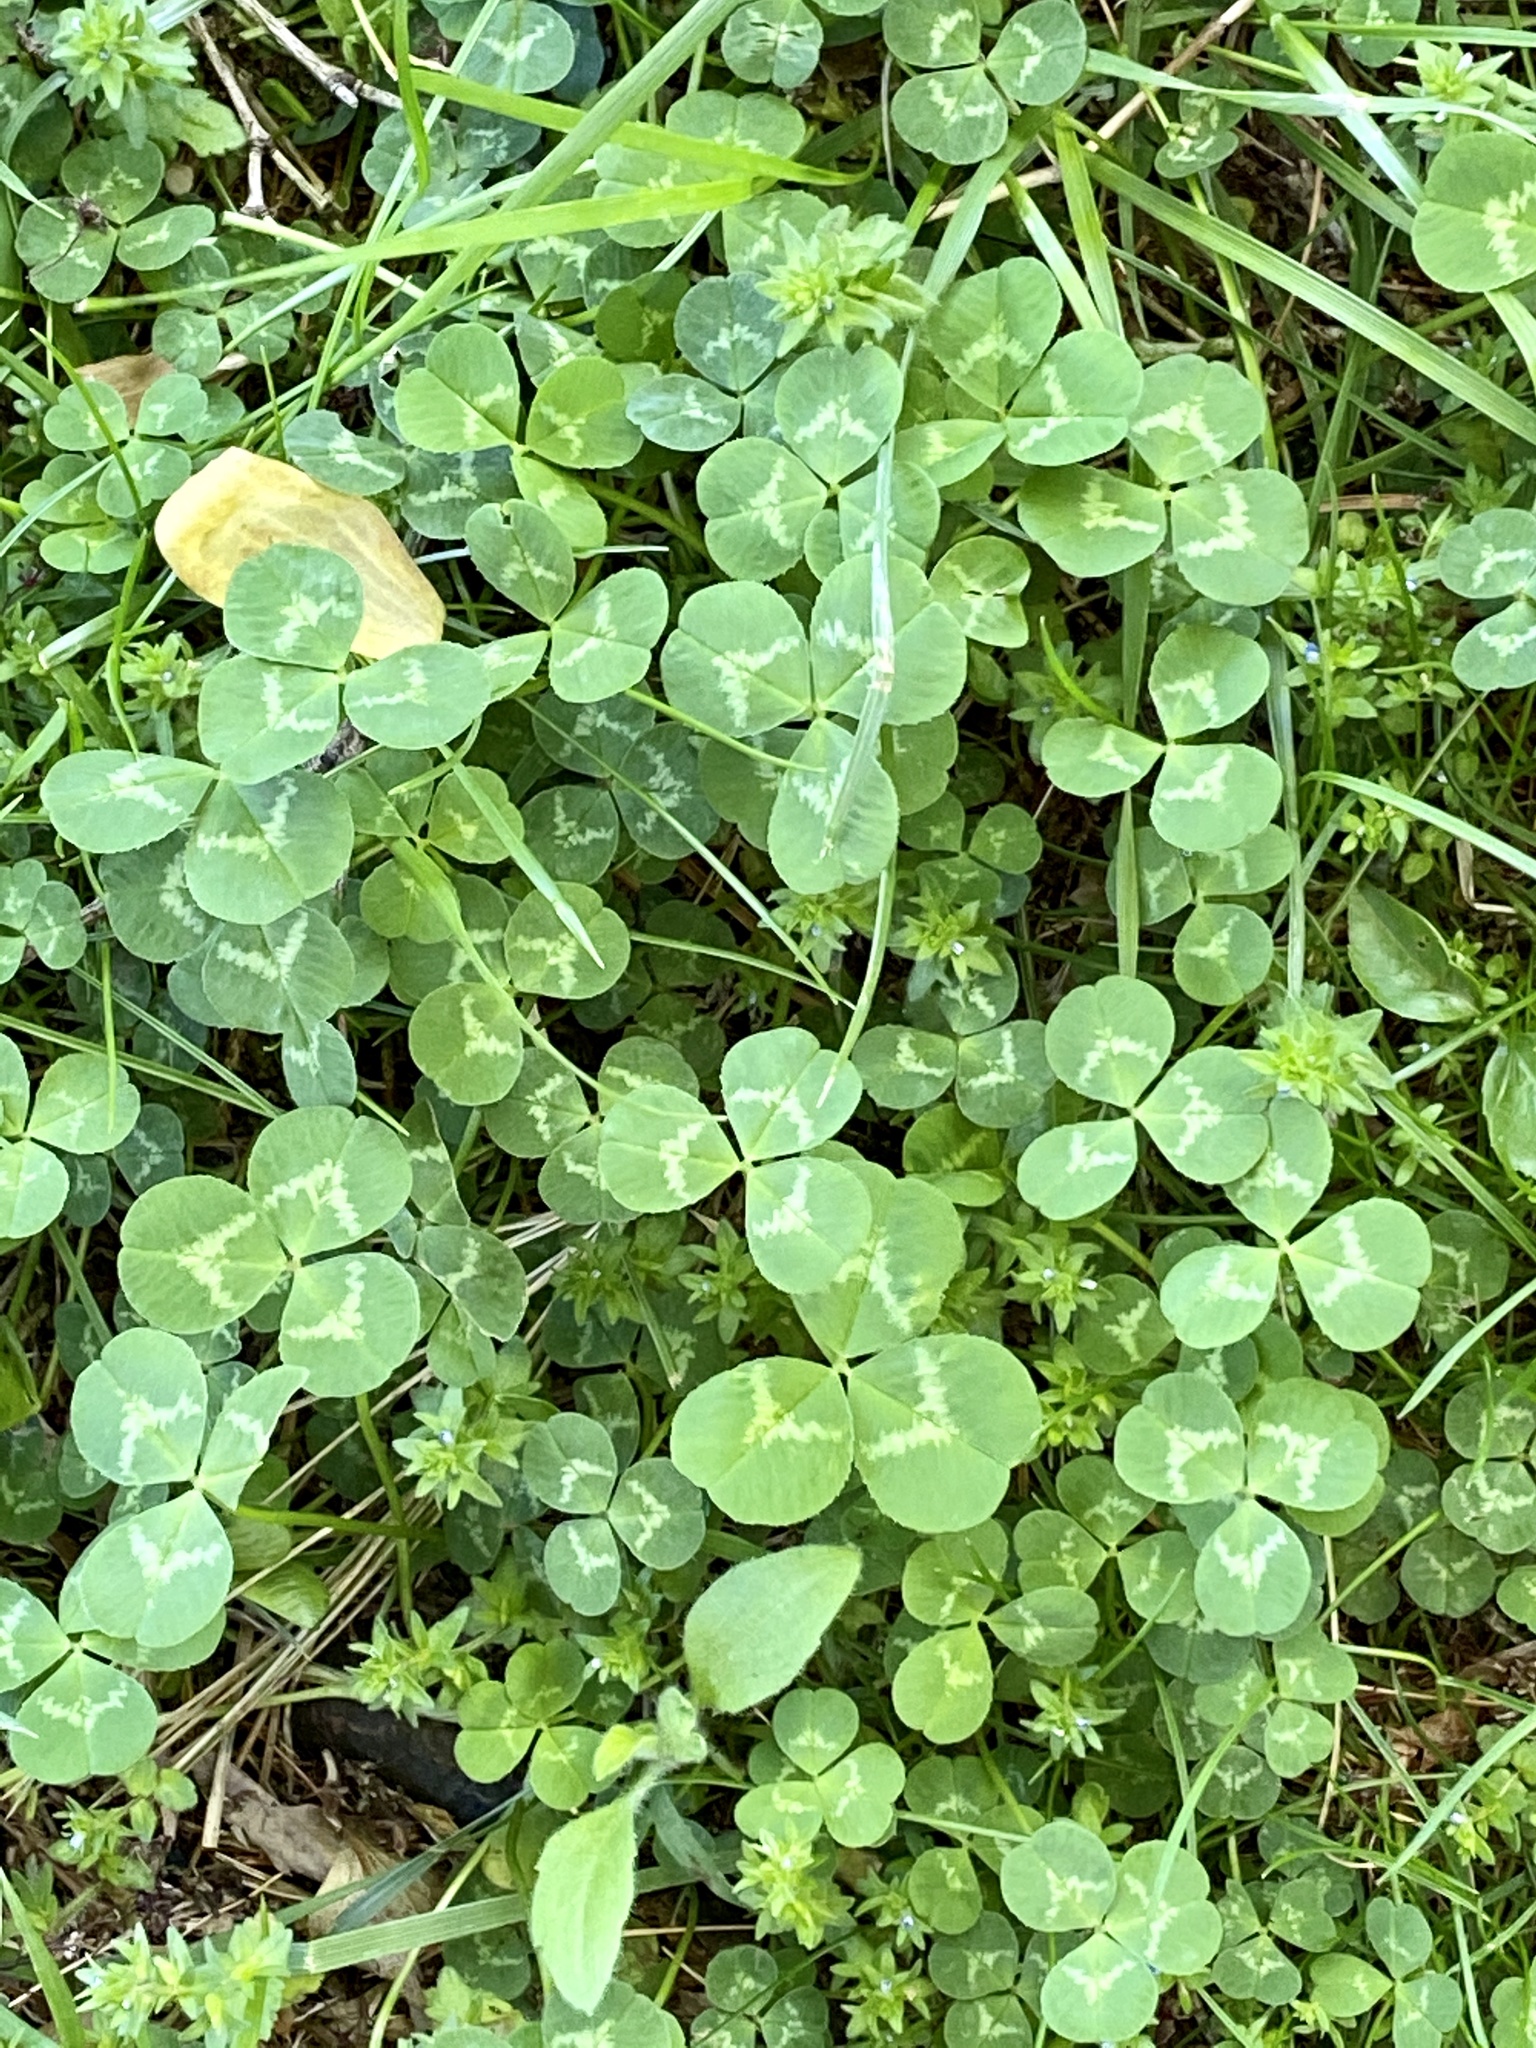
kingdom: Plantae
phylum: Tracheophyta
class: Magnoliopsida
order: Fabales
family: Fabaceae
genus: Trifolium
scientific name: Trifolium repens
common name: White clover
